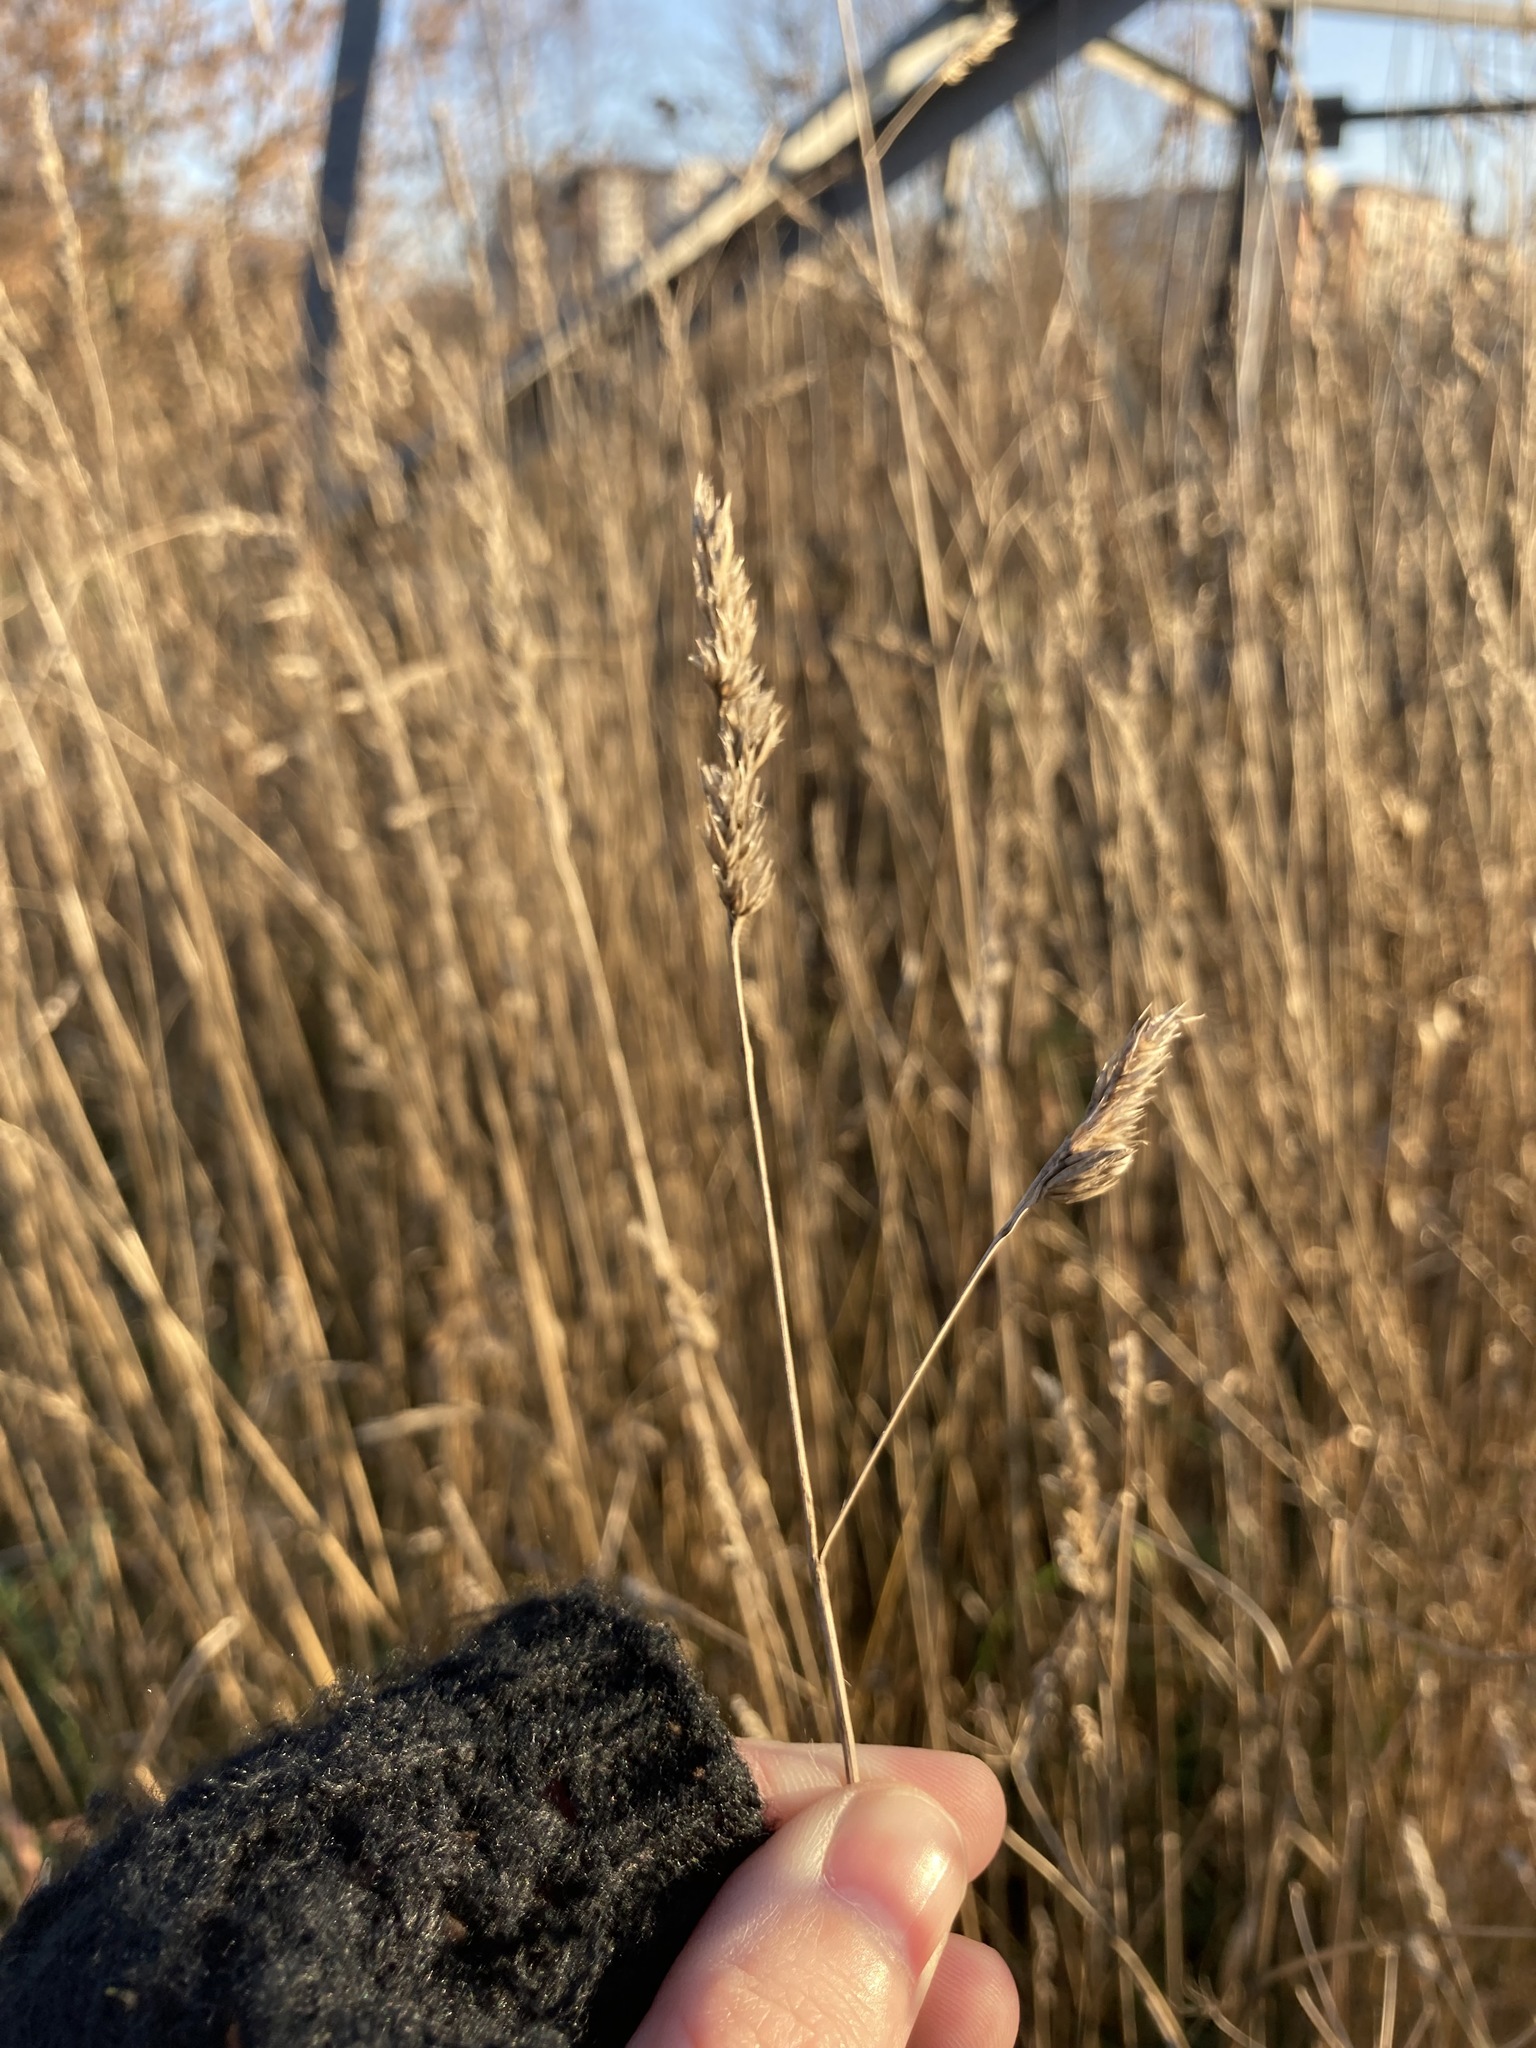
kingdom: Plantae
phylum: Tracheophyta
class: Liliopsida
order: Poales
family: Poaceae
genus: Dactylis
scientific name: Dactylis glomerata
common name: Orchardgrass
